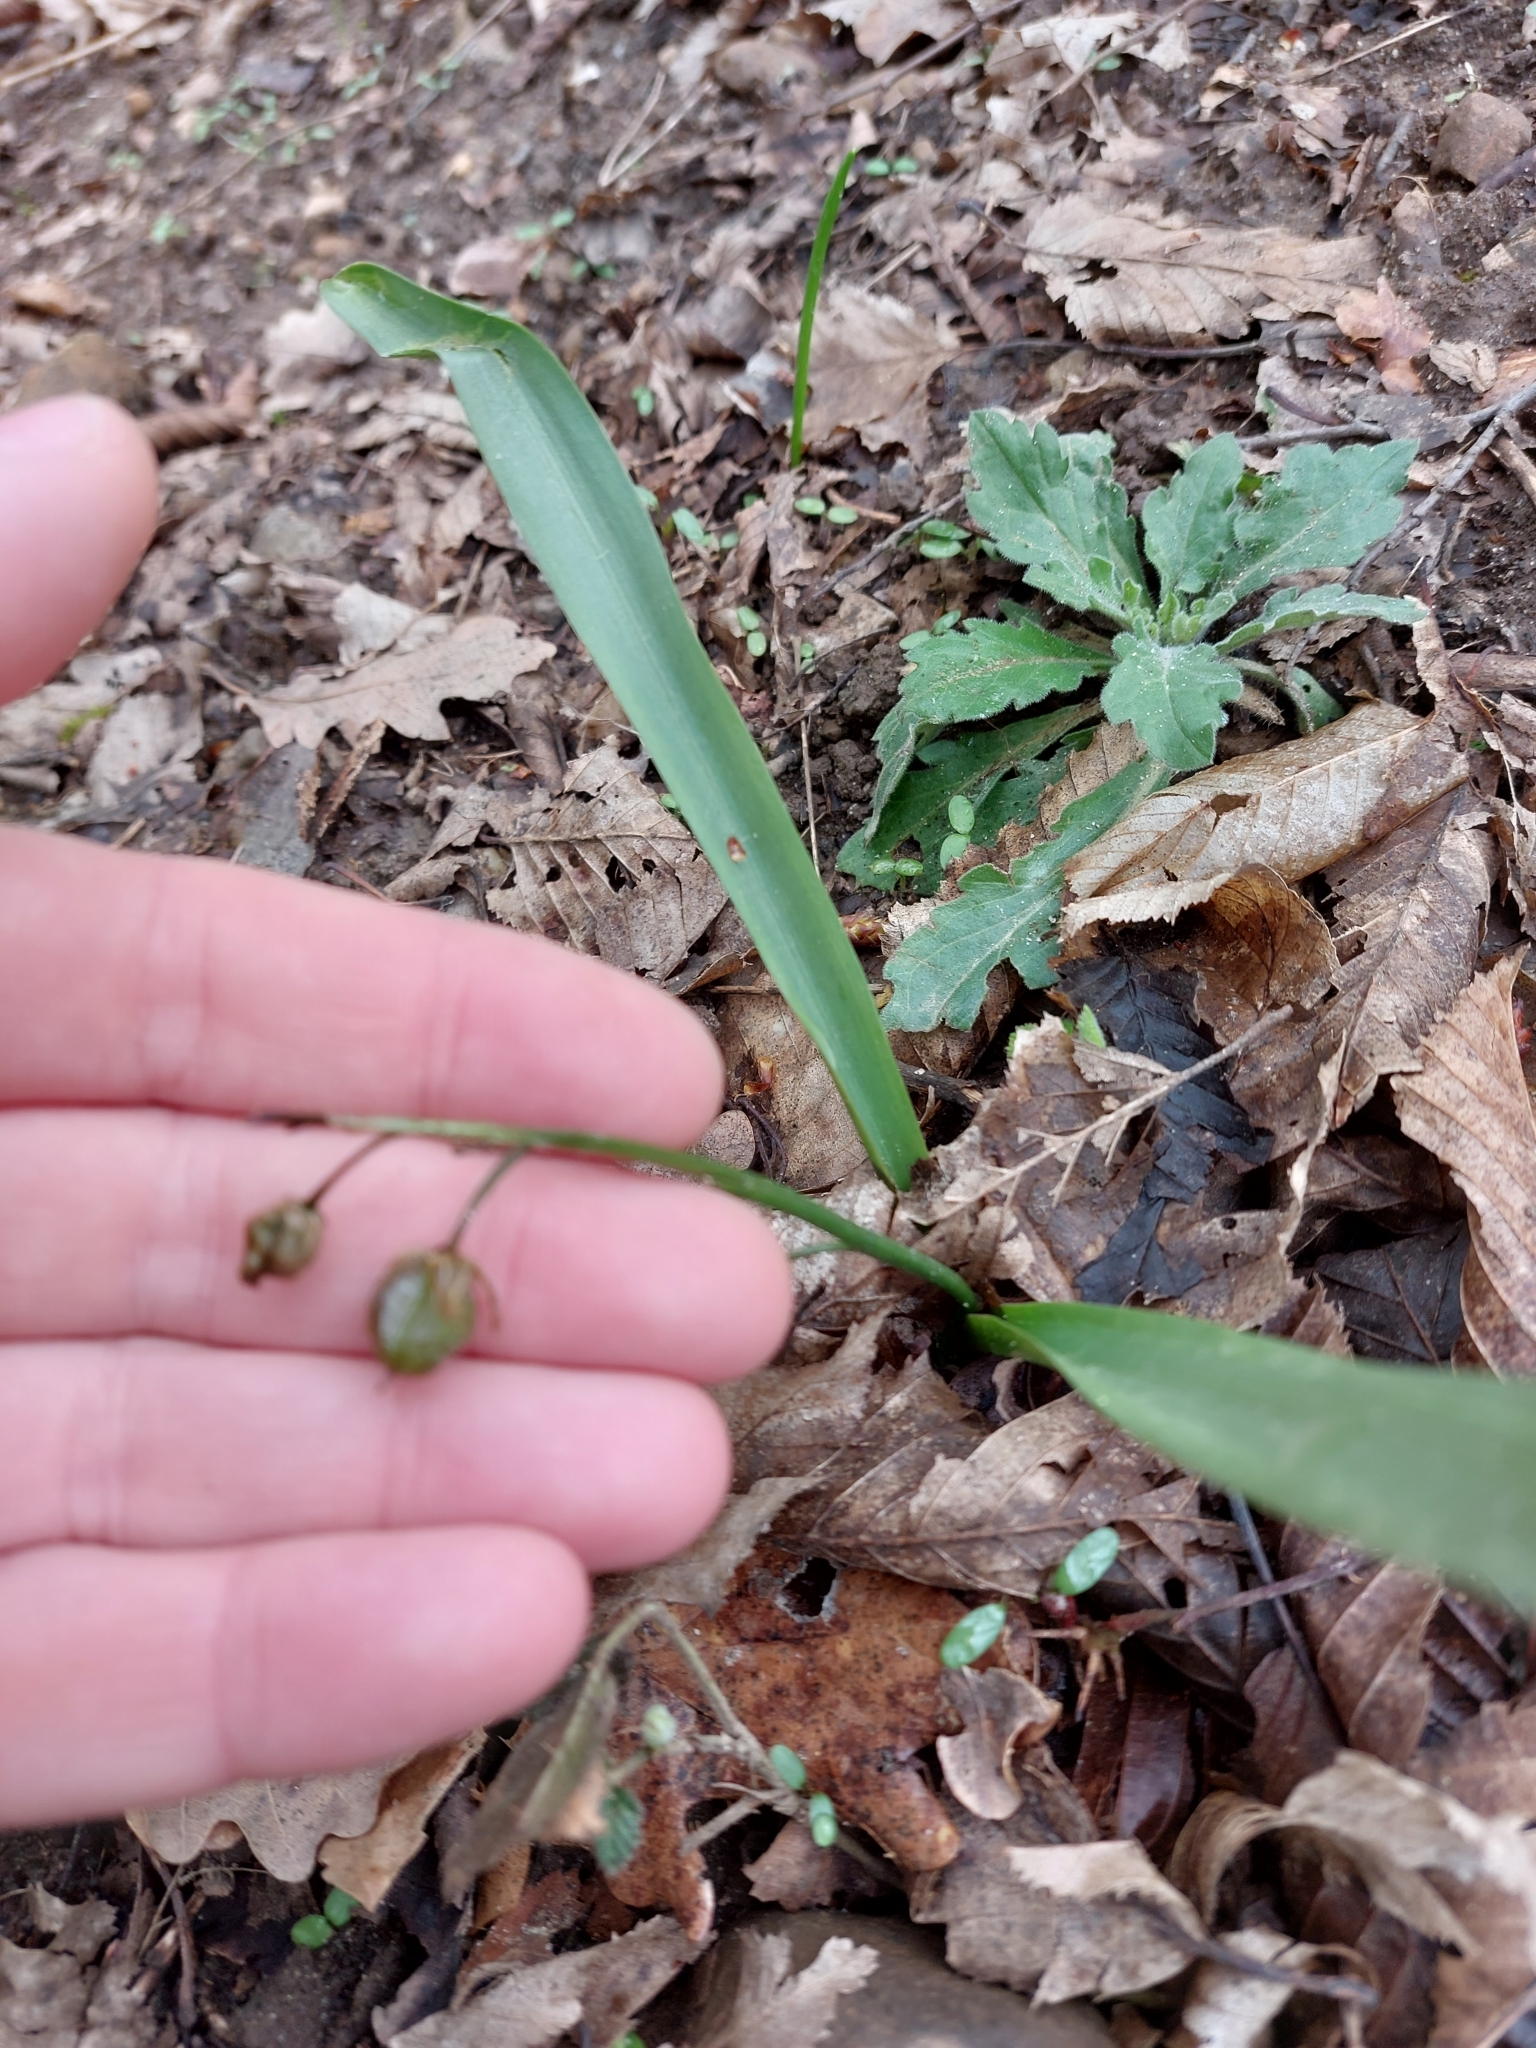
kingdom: Plantae
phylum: Tracheophyta
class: Liliopsida
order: Asparagales
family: Asparagaceae
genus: Scilla
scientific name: Scilla bifolia
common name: Alpine squill
